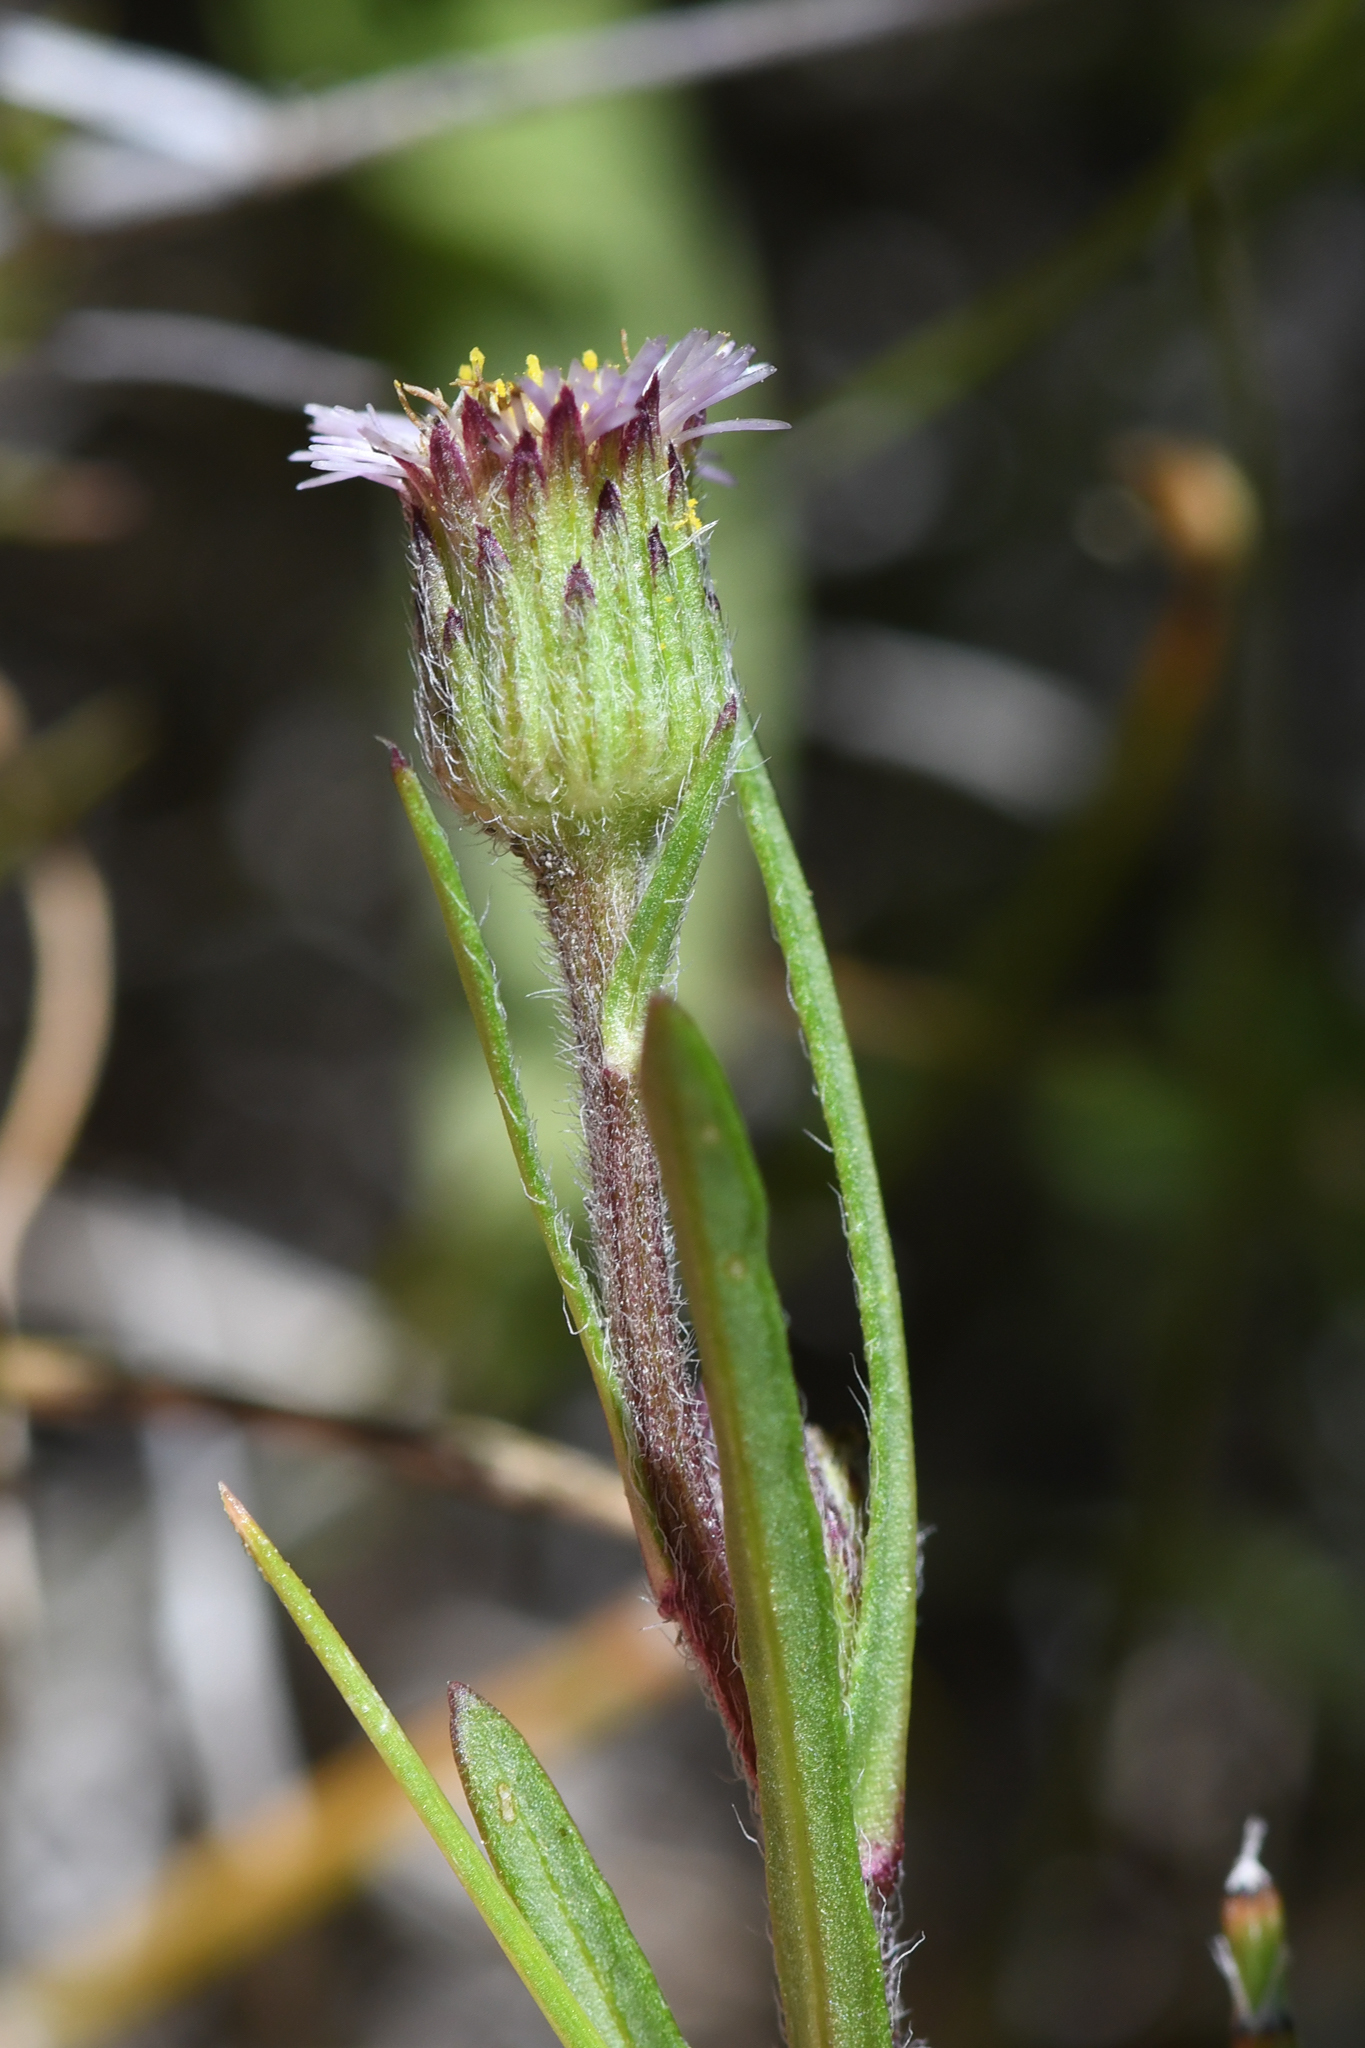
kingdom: Plantae
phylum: Tracheophyta
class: Magnoliopsida
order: Asterales
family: Asteraceae
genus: Erigeron
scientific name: Erigeron lonchophyllus
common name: Short-ray fleabane
